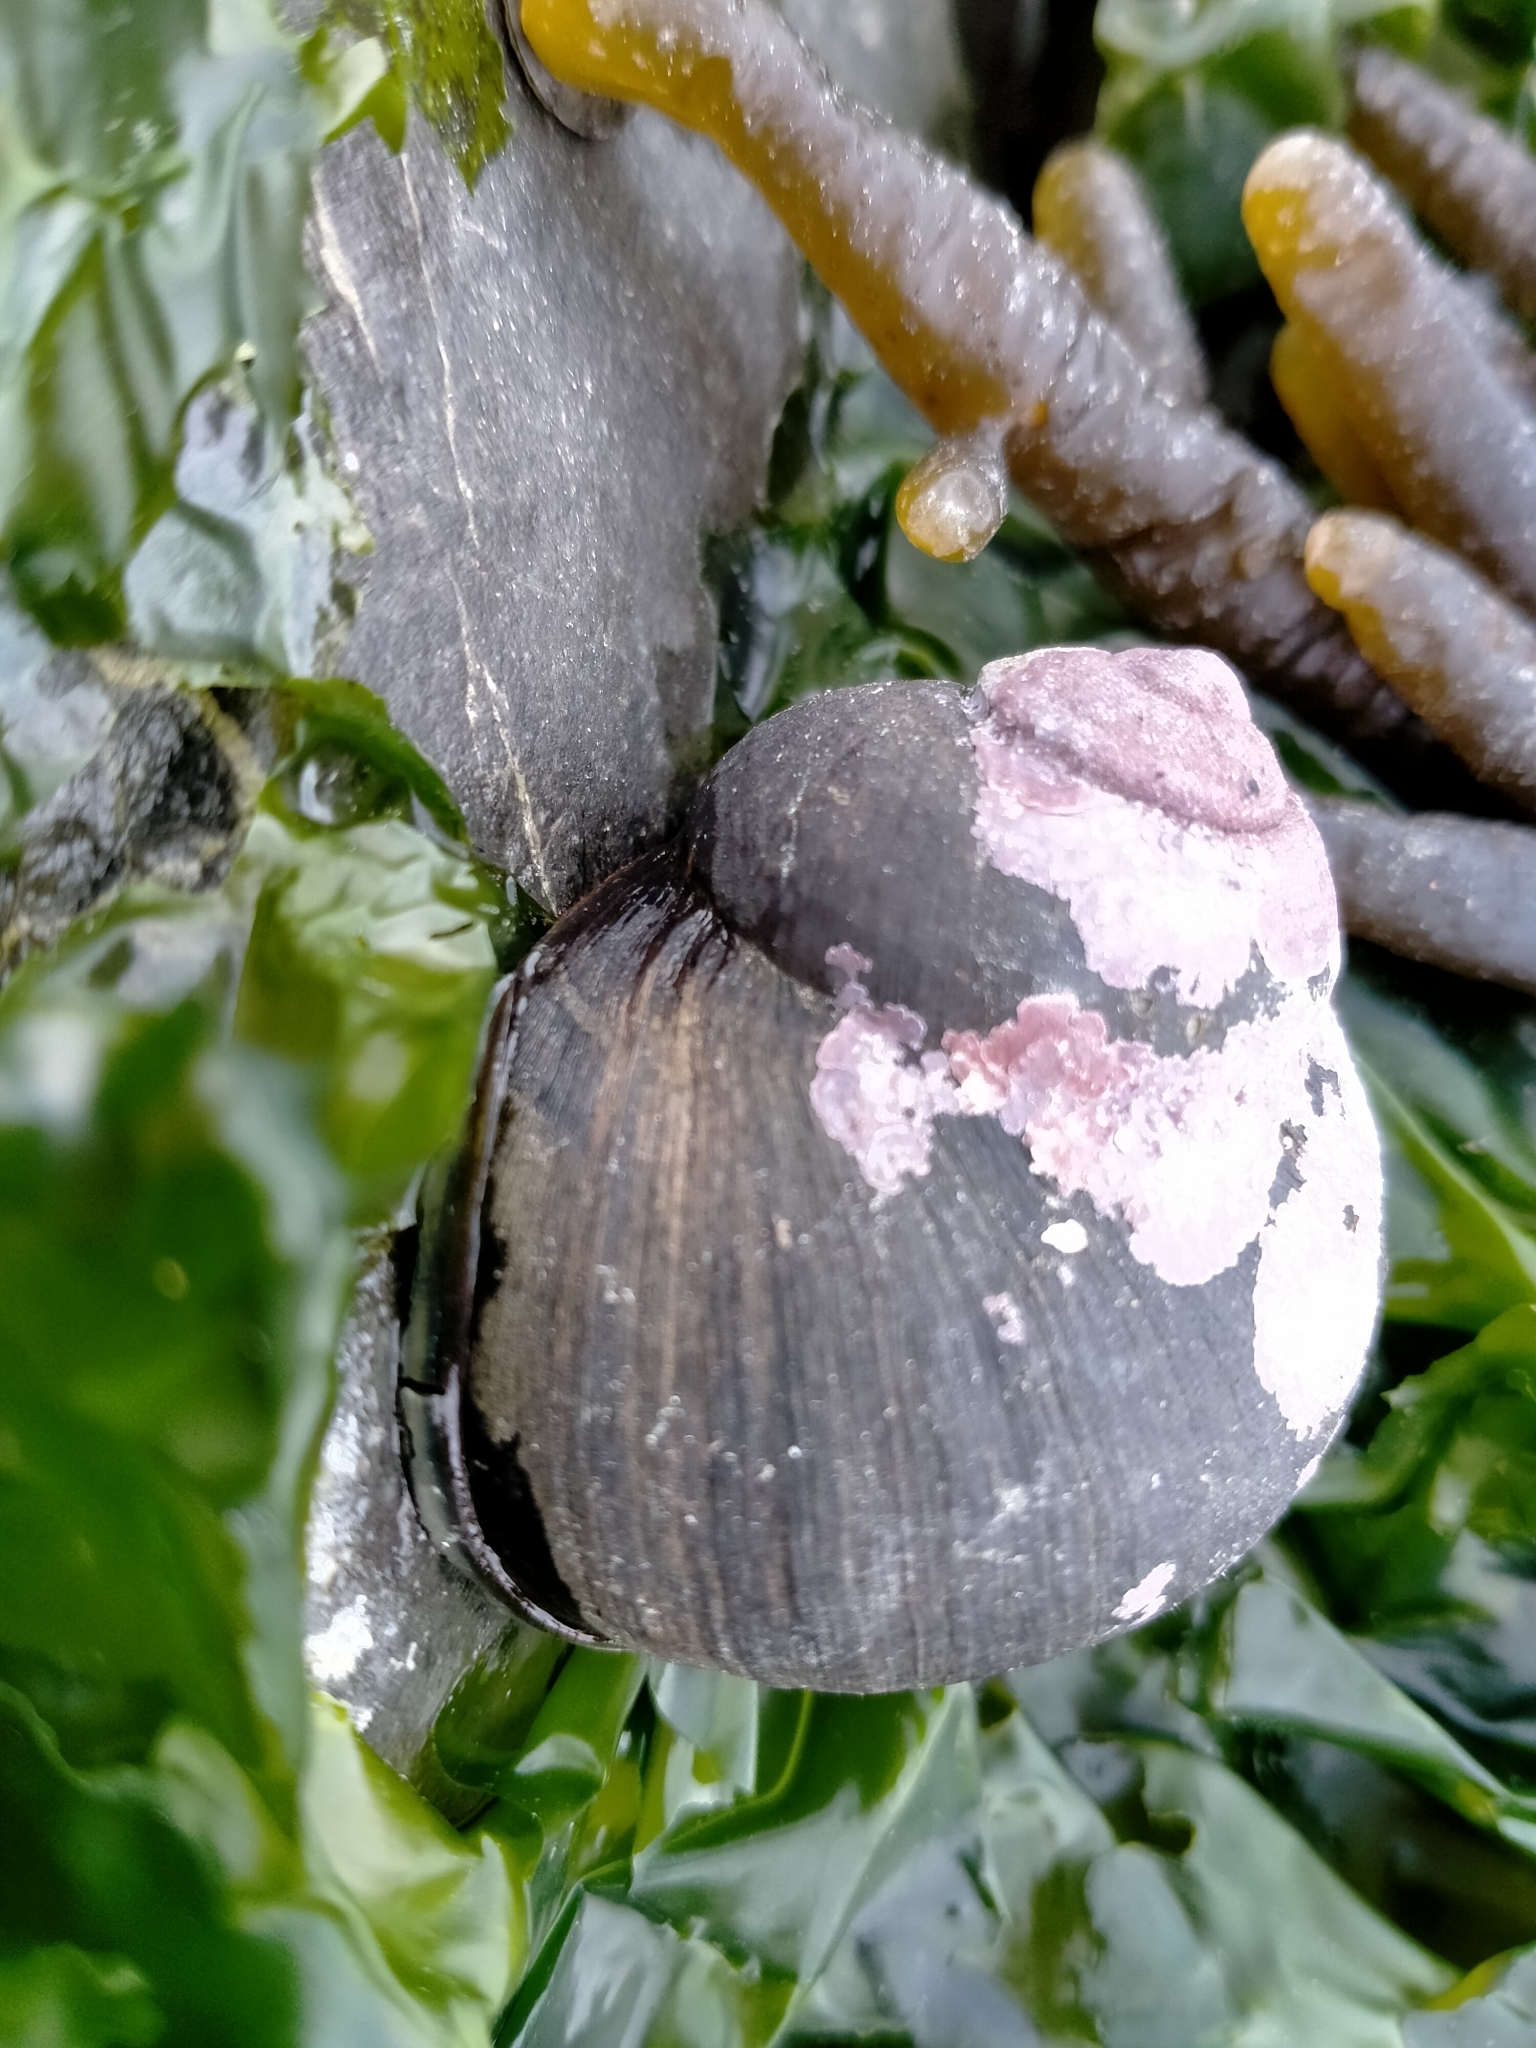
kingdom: Animalia
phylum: Mollusca
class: Gastropoda
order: Trochida
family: Turbinidae
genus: Lunella
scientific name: Lunella smaragda
